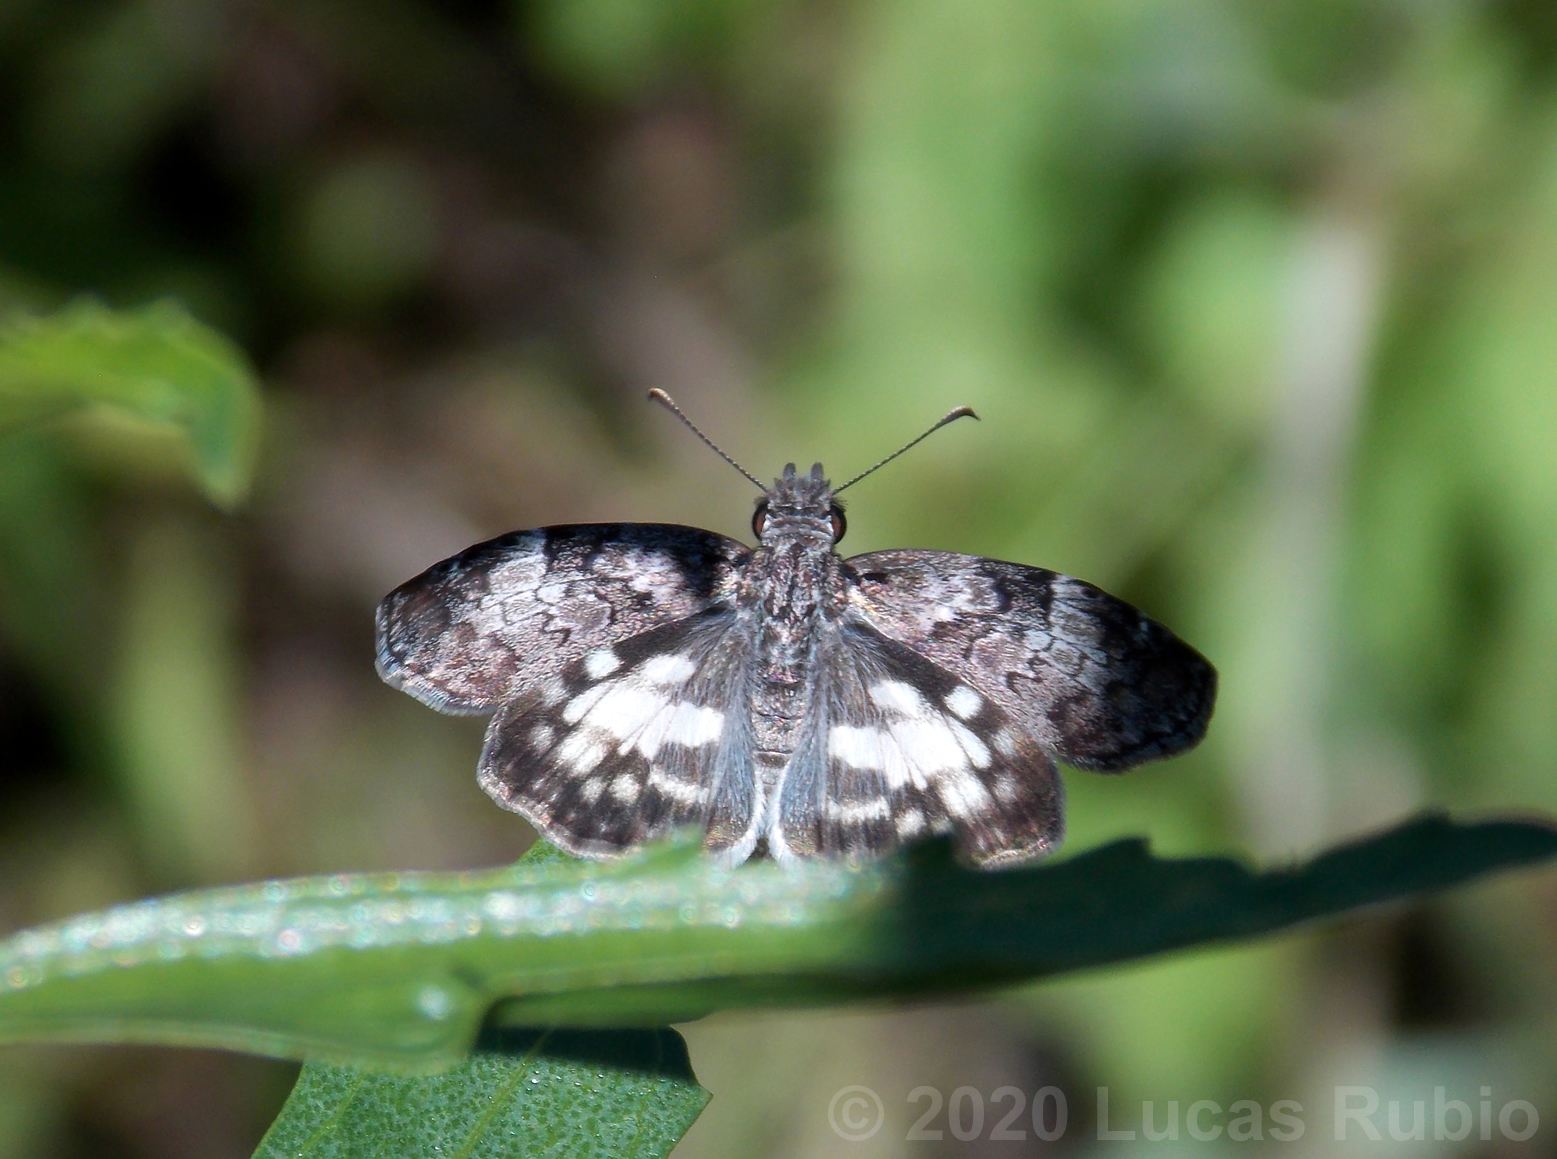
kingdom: Animalia
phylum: Arthropoda
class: Insecta
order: Lepidoptera
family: Hesperiidae
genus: Chiomara
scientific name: Chiomara asychis
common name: White-patterned skipper
